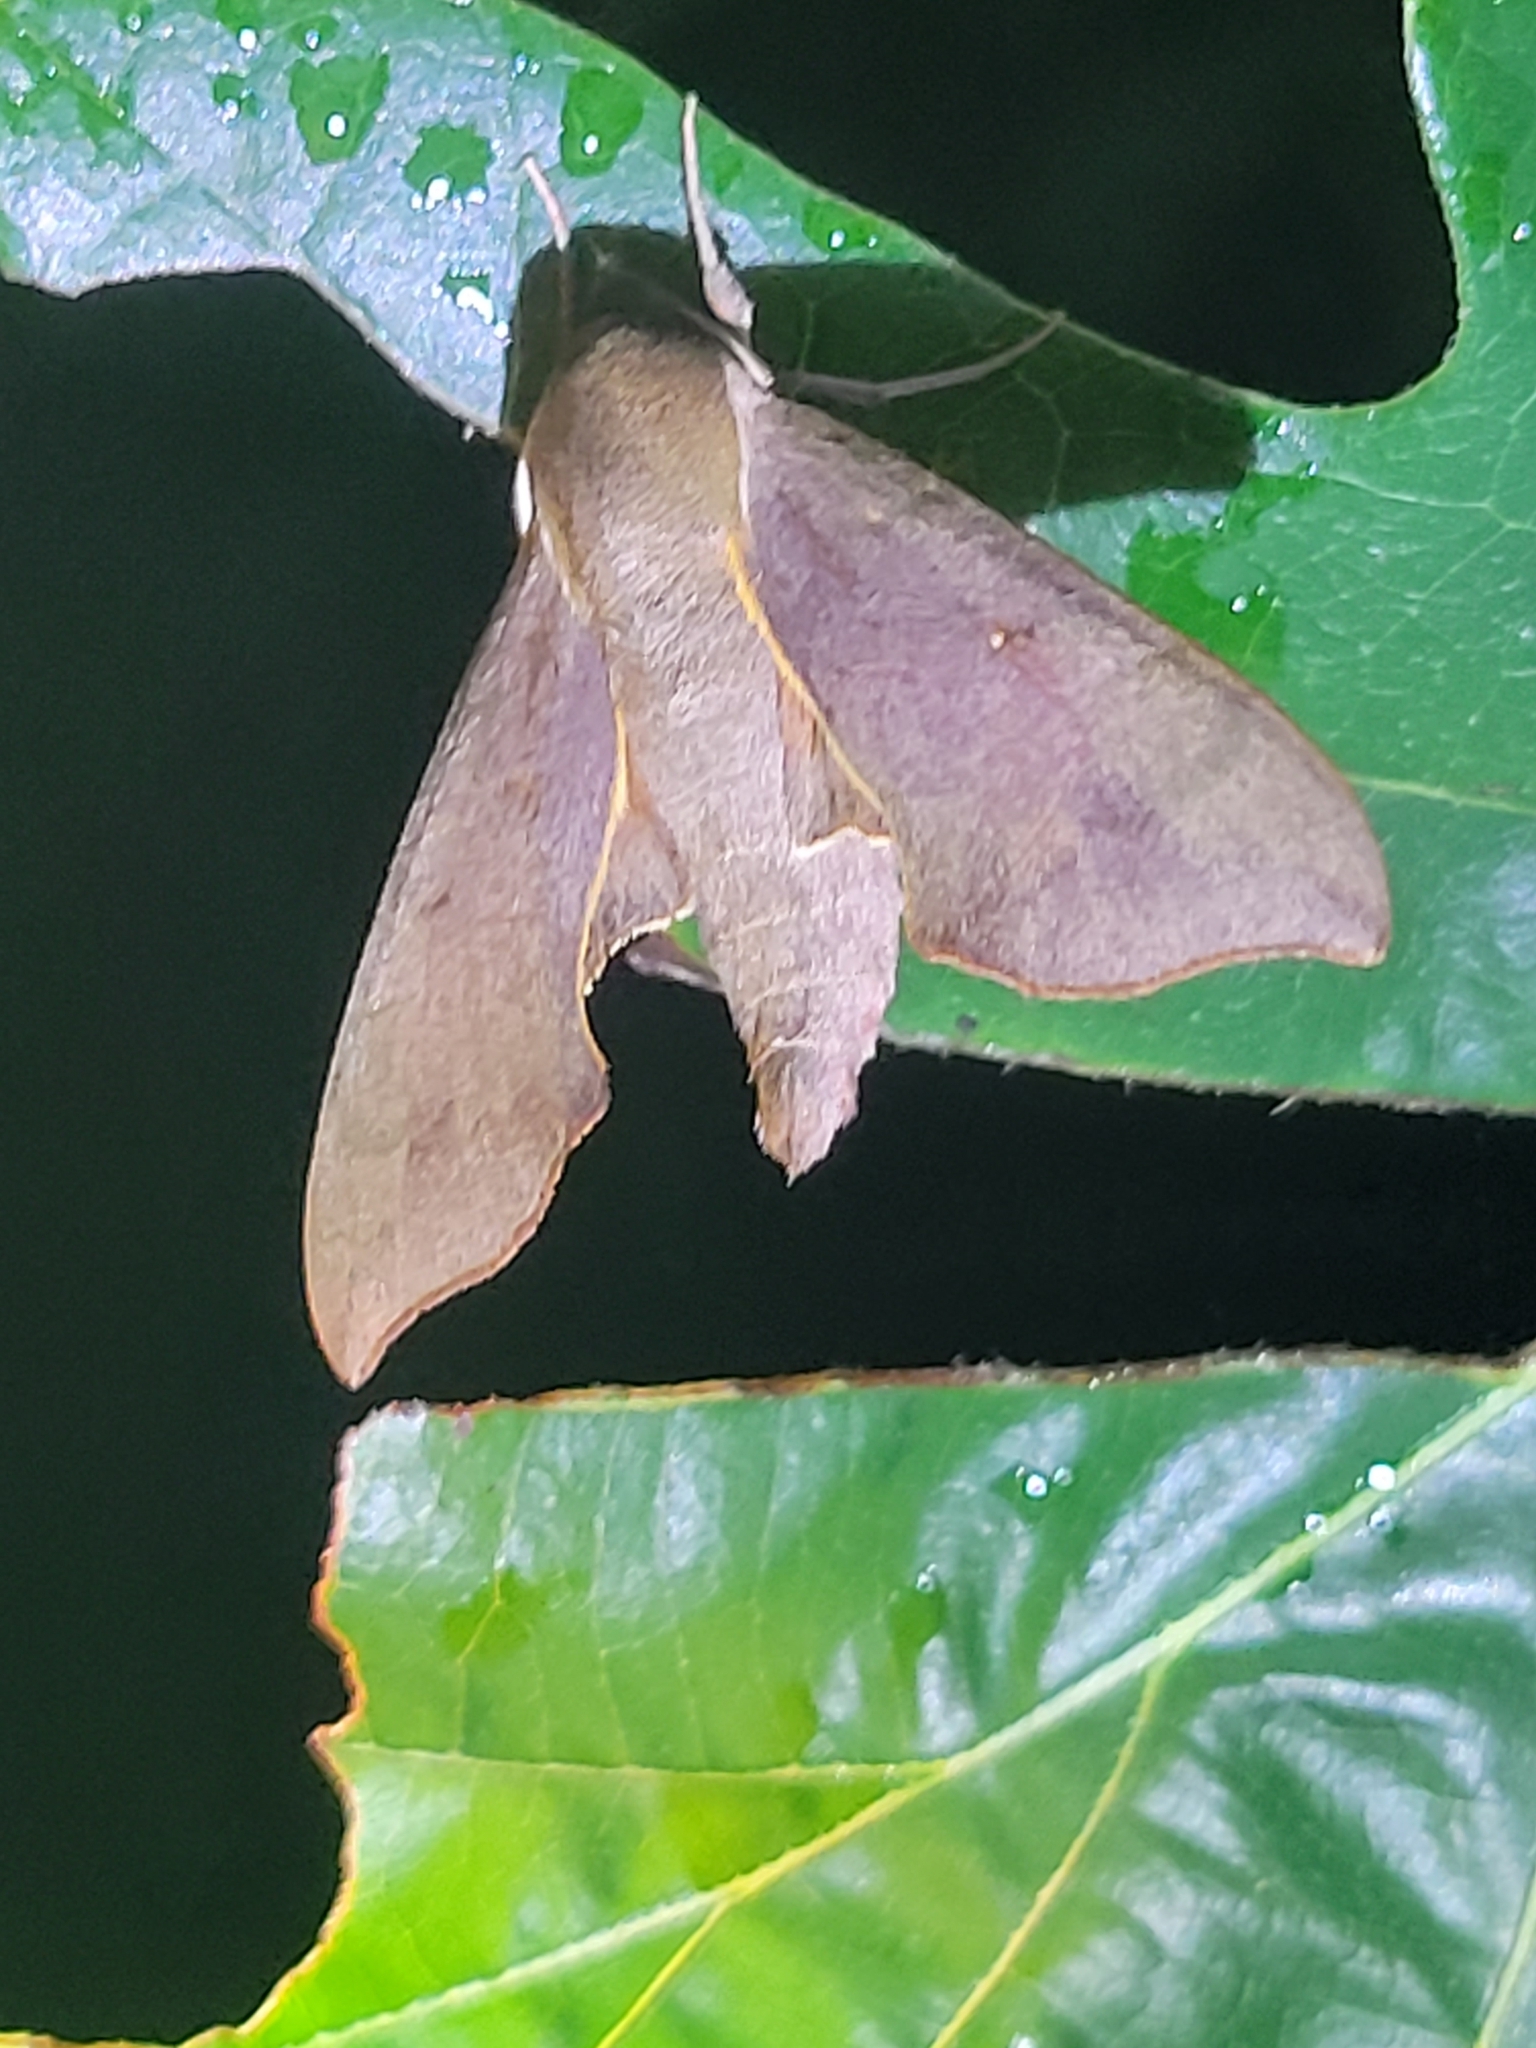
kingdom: Animalia
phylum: Arthropoda
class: Insecta
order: Lepidoptera
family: Sphingidae
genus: Darapsa
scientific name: Darapsa myron
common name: Hog sphinx
